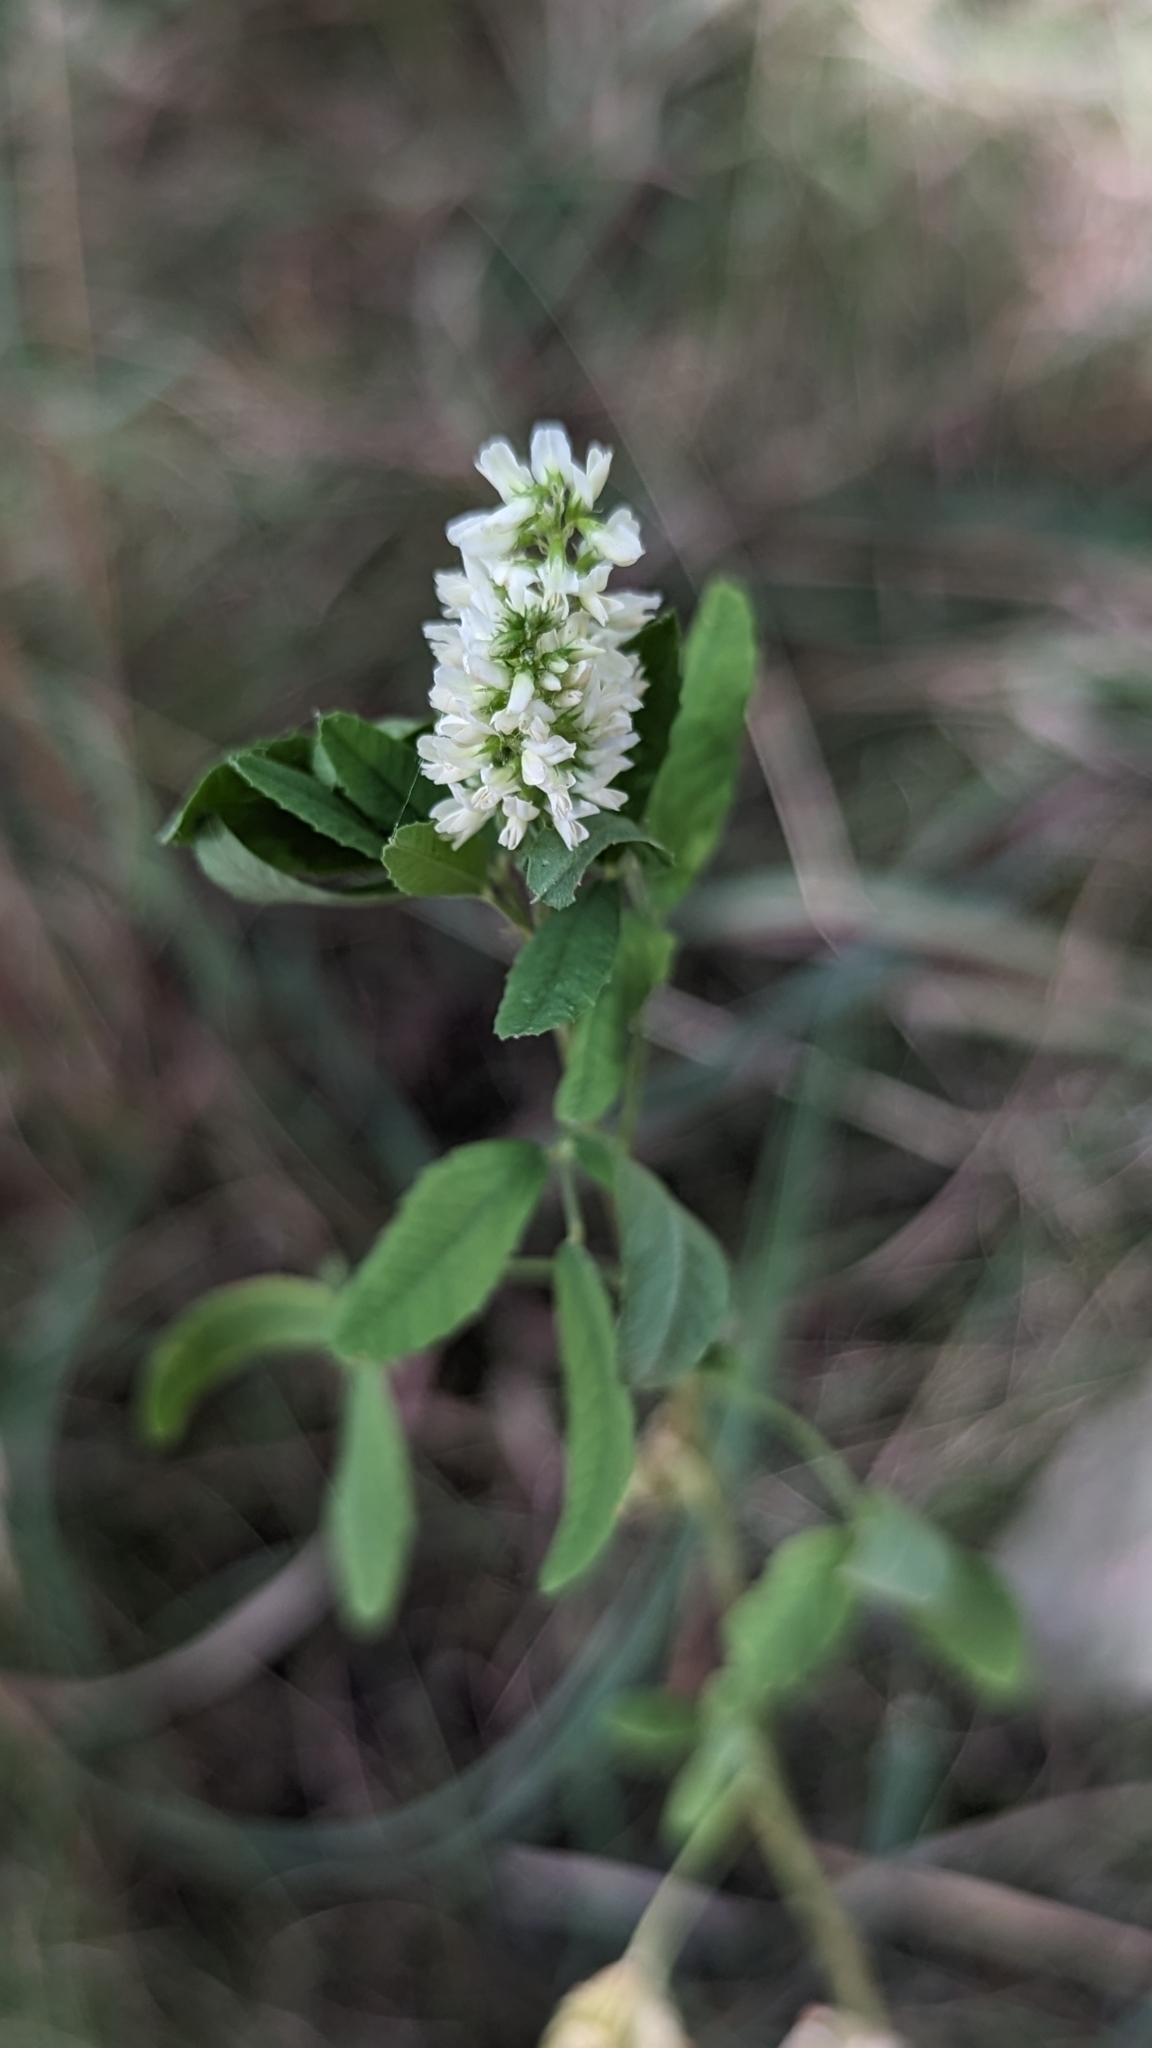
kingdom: Plantae
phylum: Tracheophyta
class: Magnoliopsida
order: Fabales
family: Fabaceae
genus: Melilotus
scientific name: Melilotus albus
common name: White melilot
